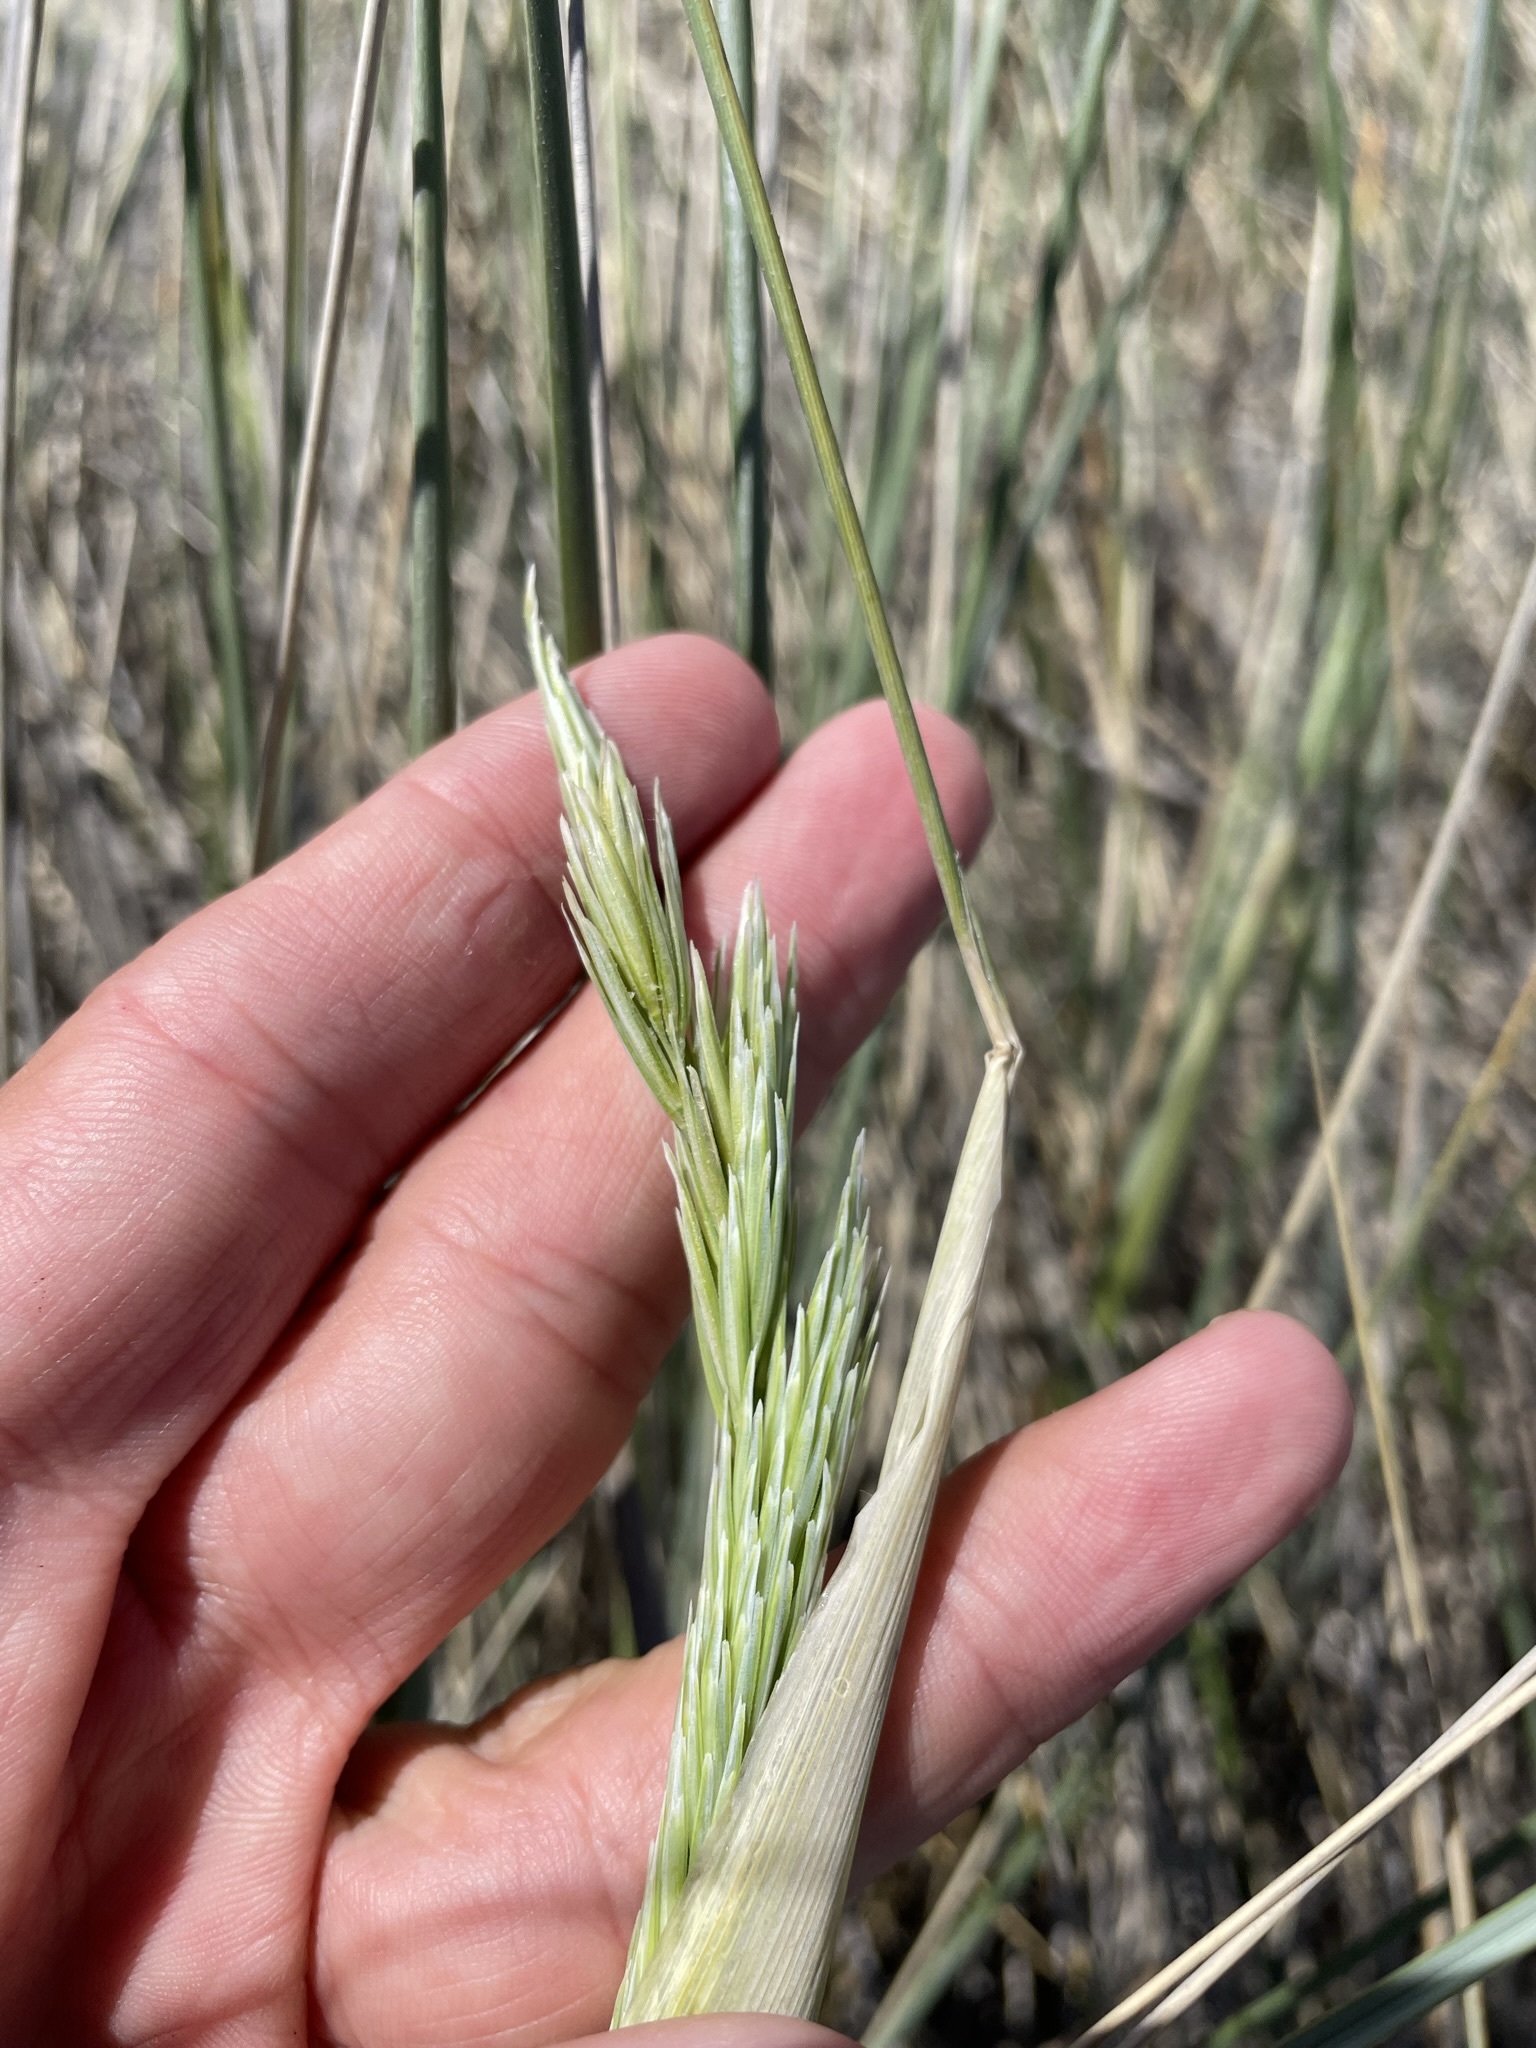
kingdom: Plantae
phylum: Tracheophyta
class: Liliopsida
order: Poales
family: Poaceae
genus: Calamagrostis
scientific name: Calamagrostis arenaria
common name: European beachgrass
